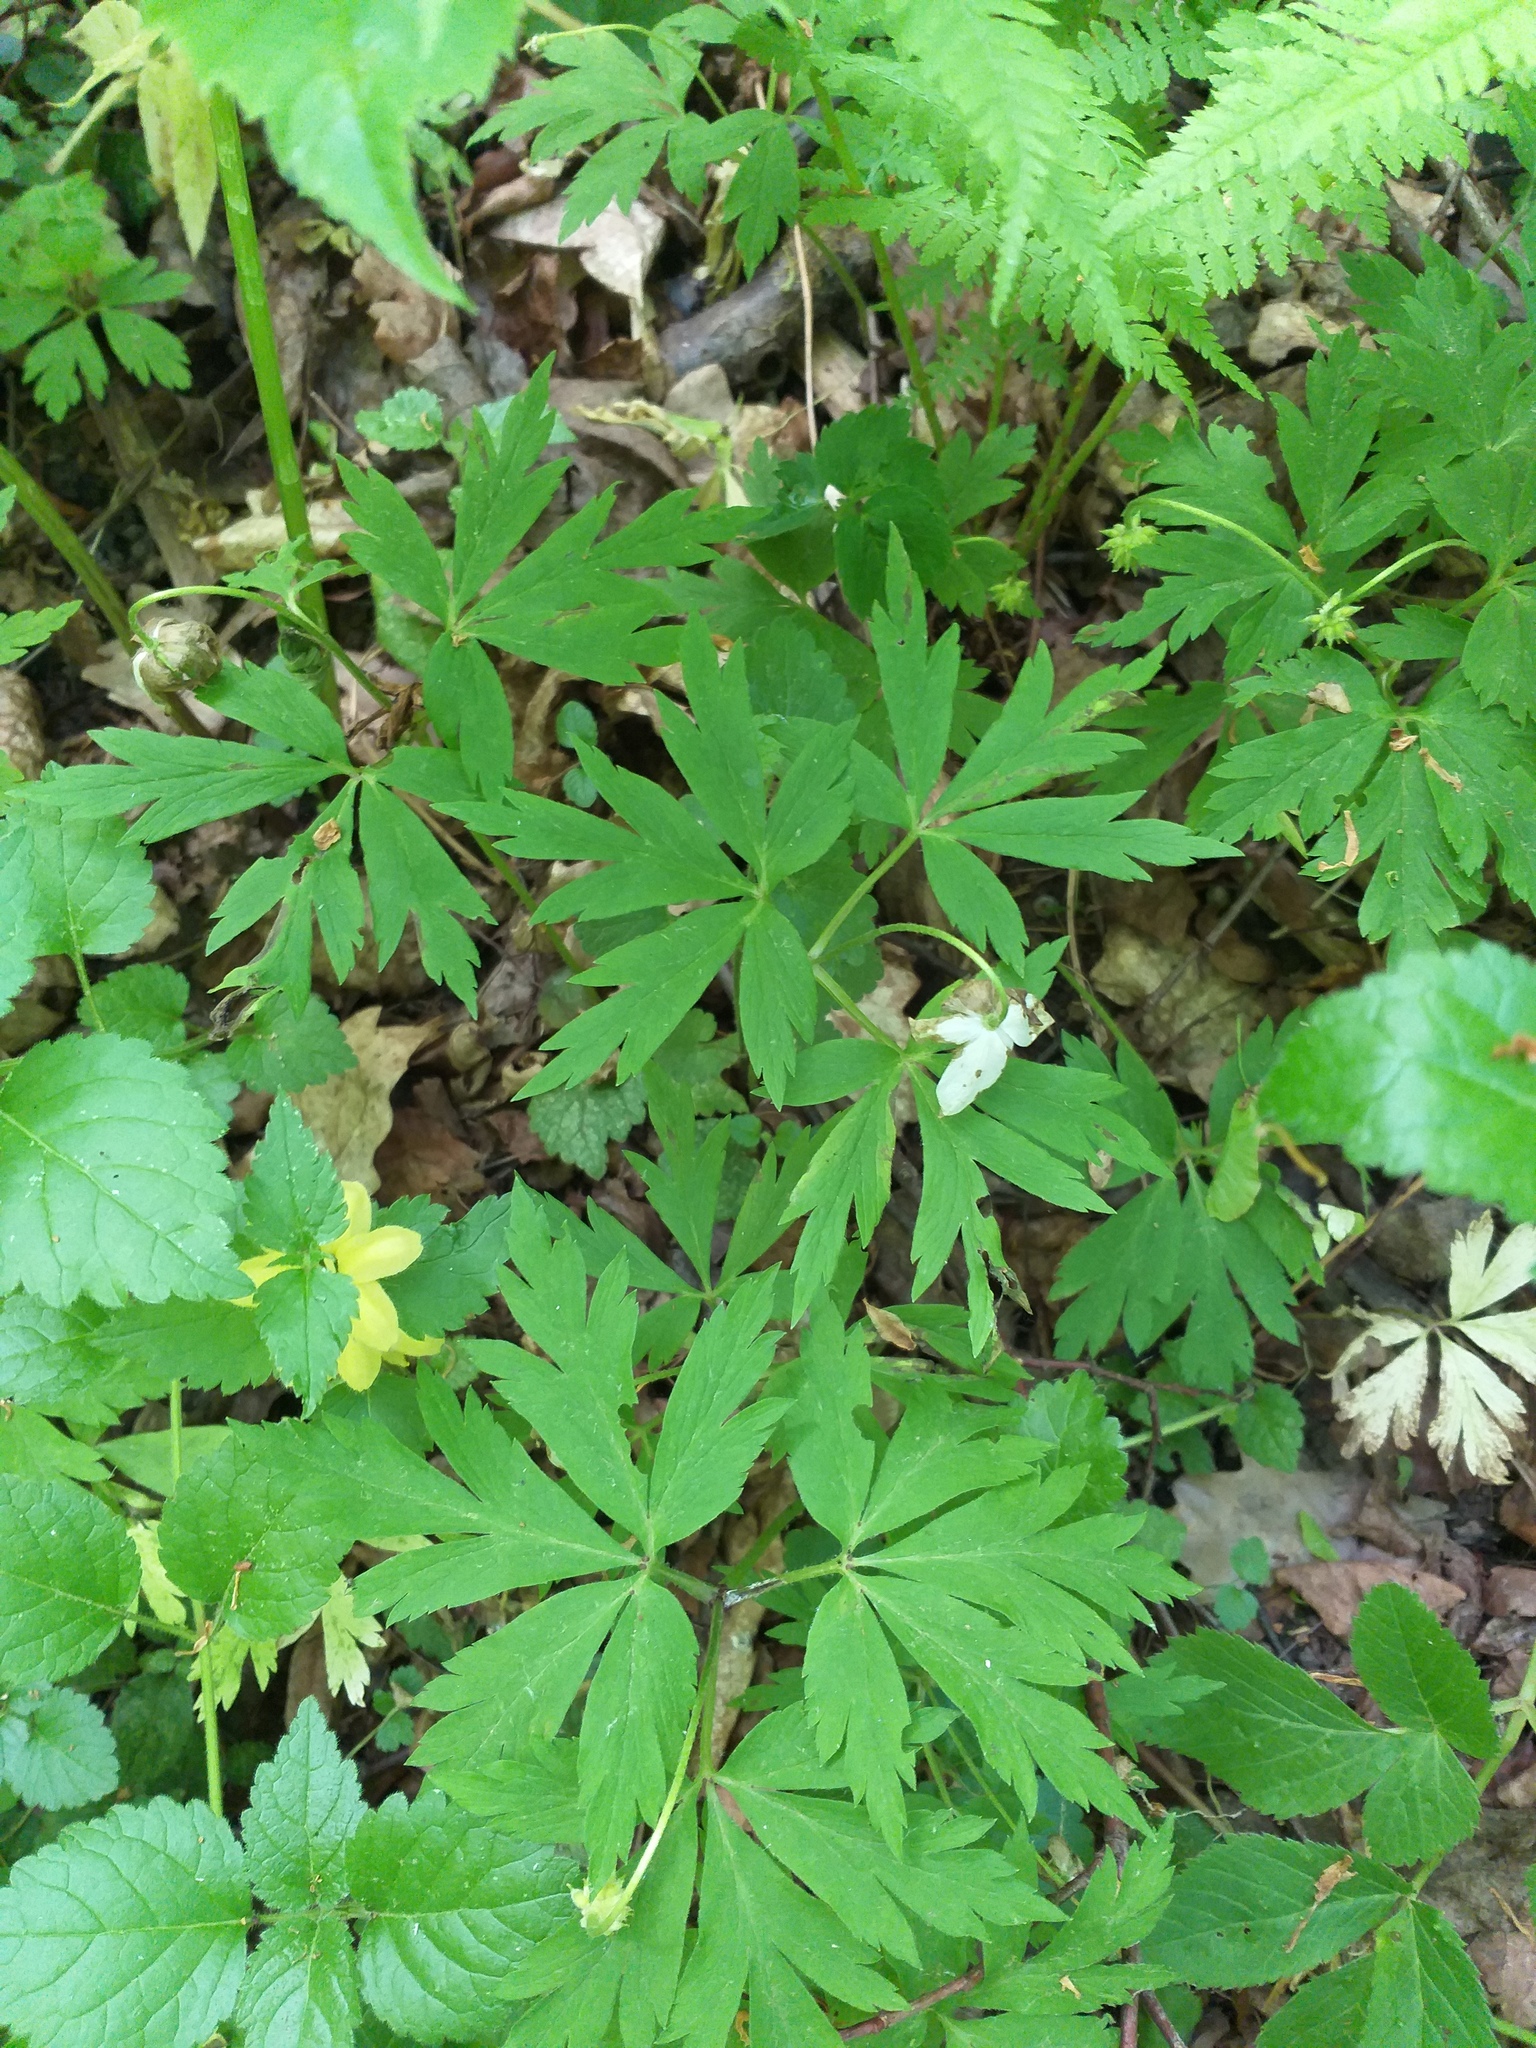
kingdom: Plantae
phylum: Tracheophyta
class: Magnoliopsida
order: Ranunculales
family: Ranunculaceae
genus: Anemone
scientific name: Anemone nemorosa
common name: Wood anemone
